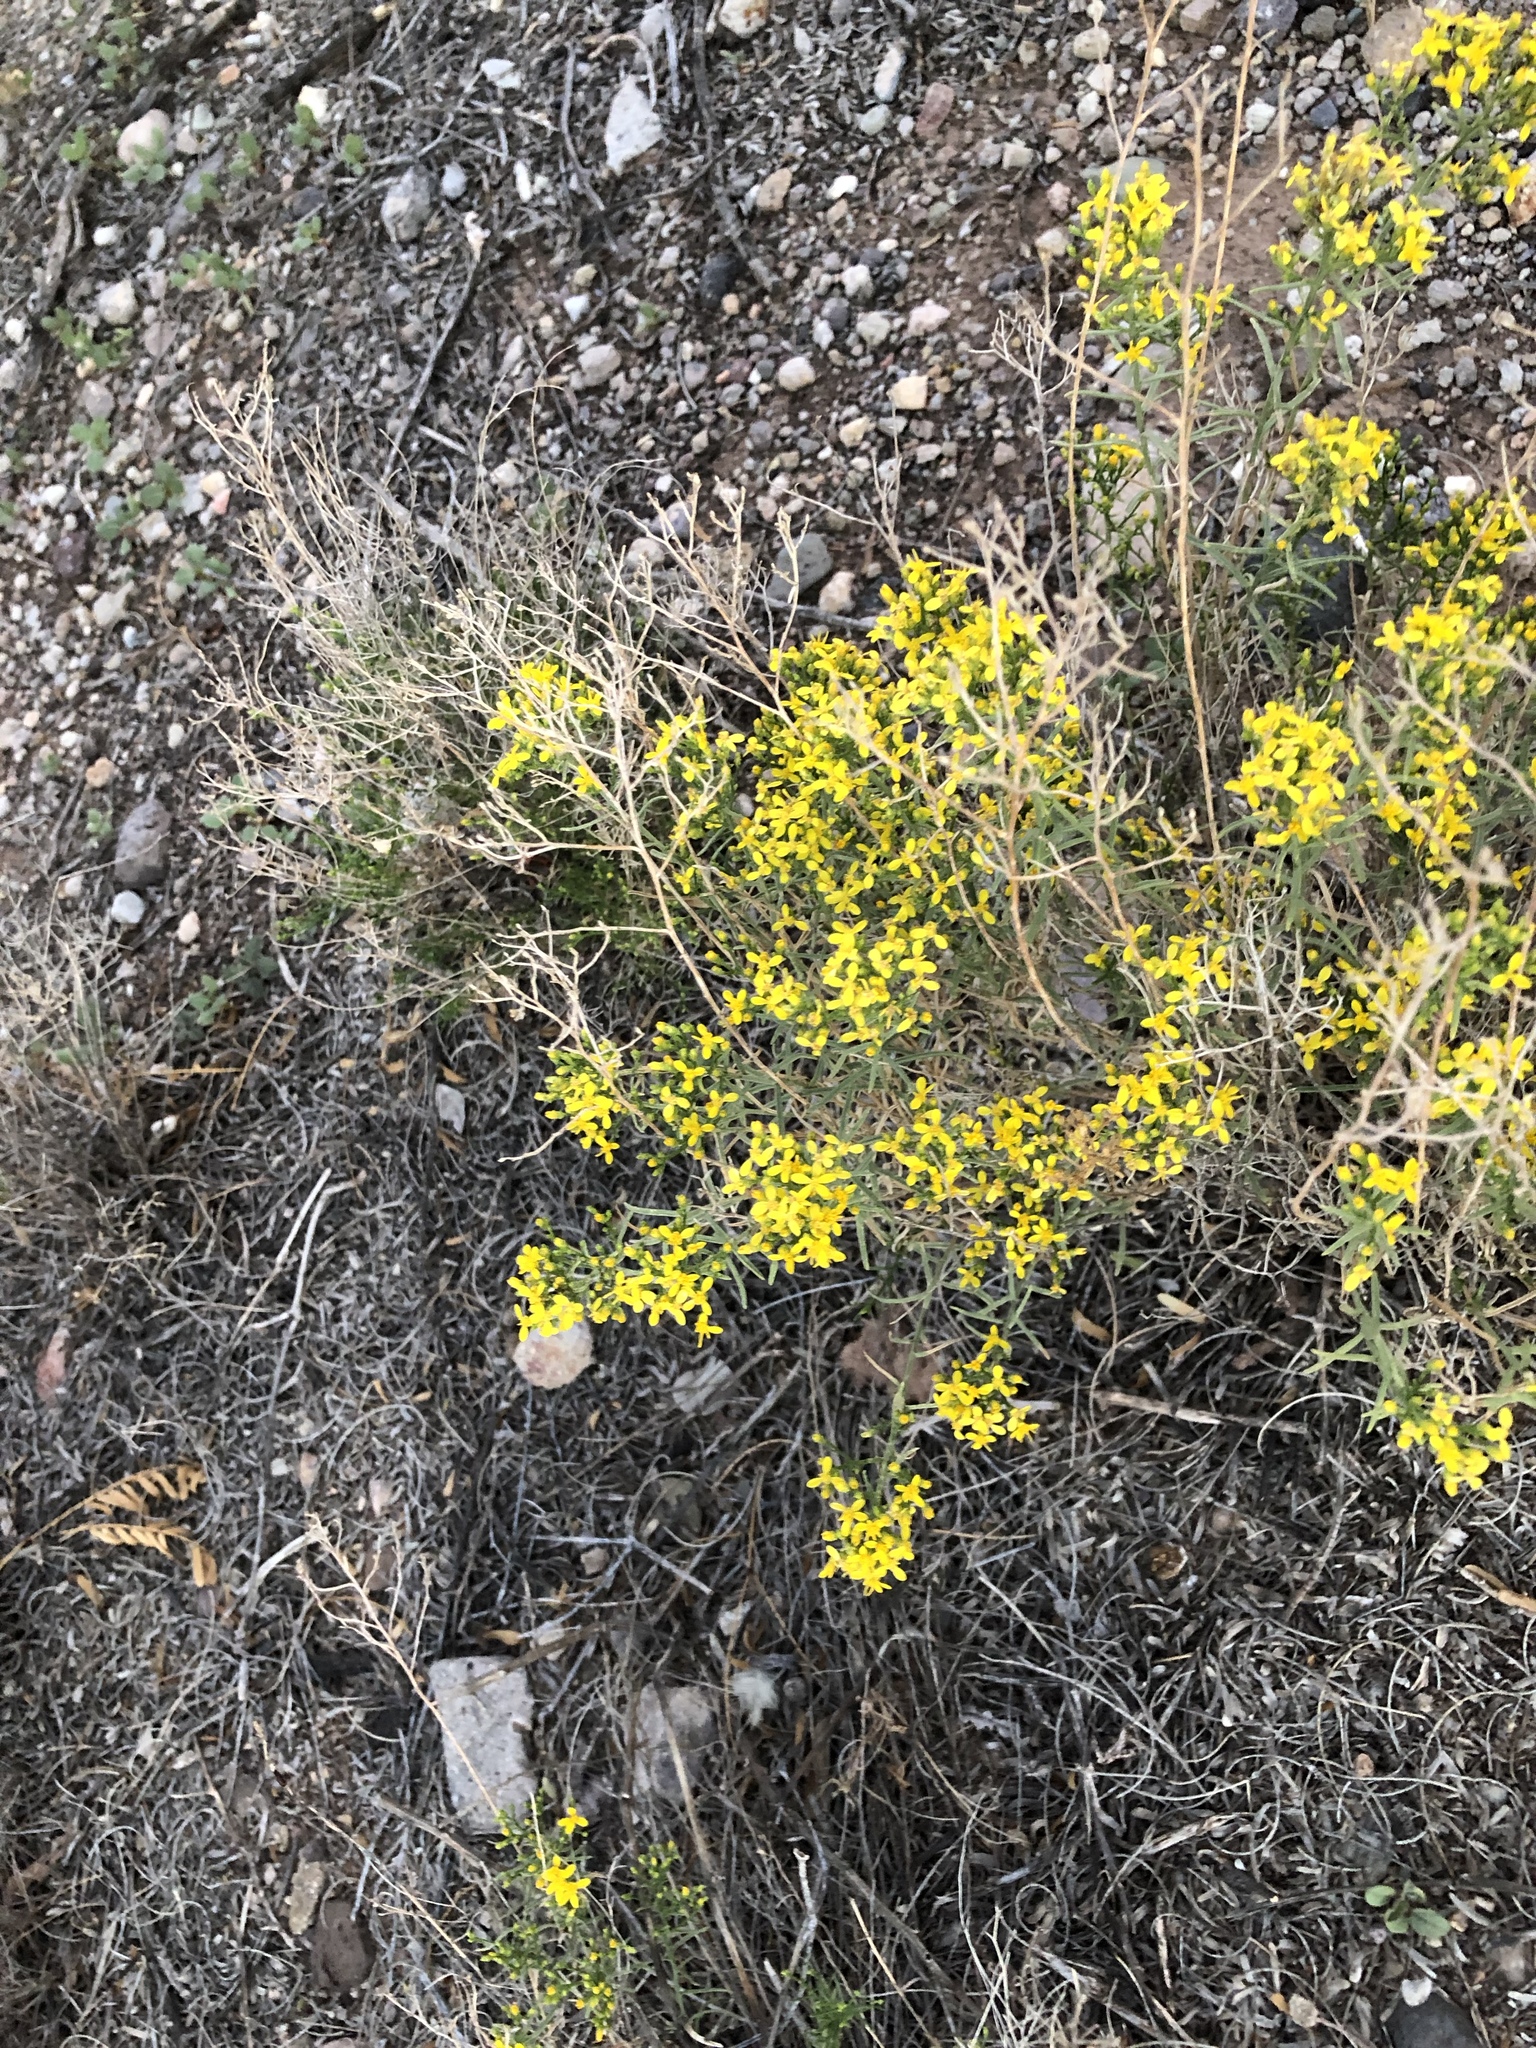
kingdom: Plantae
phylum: Tracheophyta
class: Magnoliopsida
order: Asterales
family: Asteraceae
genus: Gutierrezia
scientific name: Gutierrezia sarothrae
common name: Broom snakeweed
